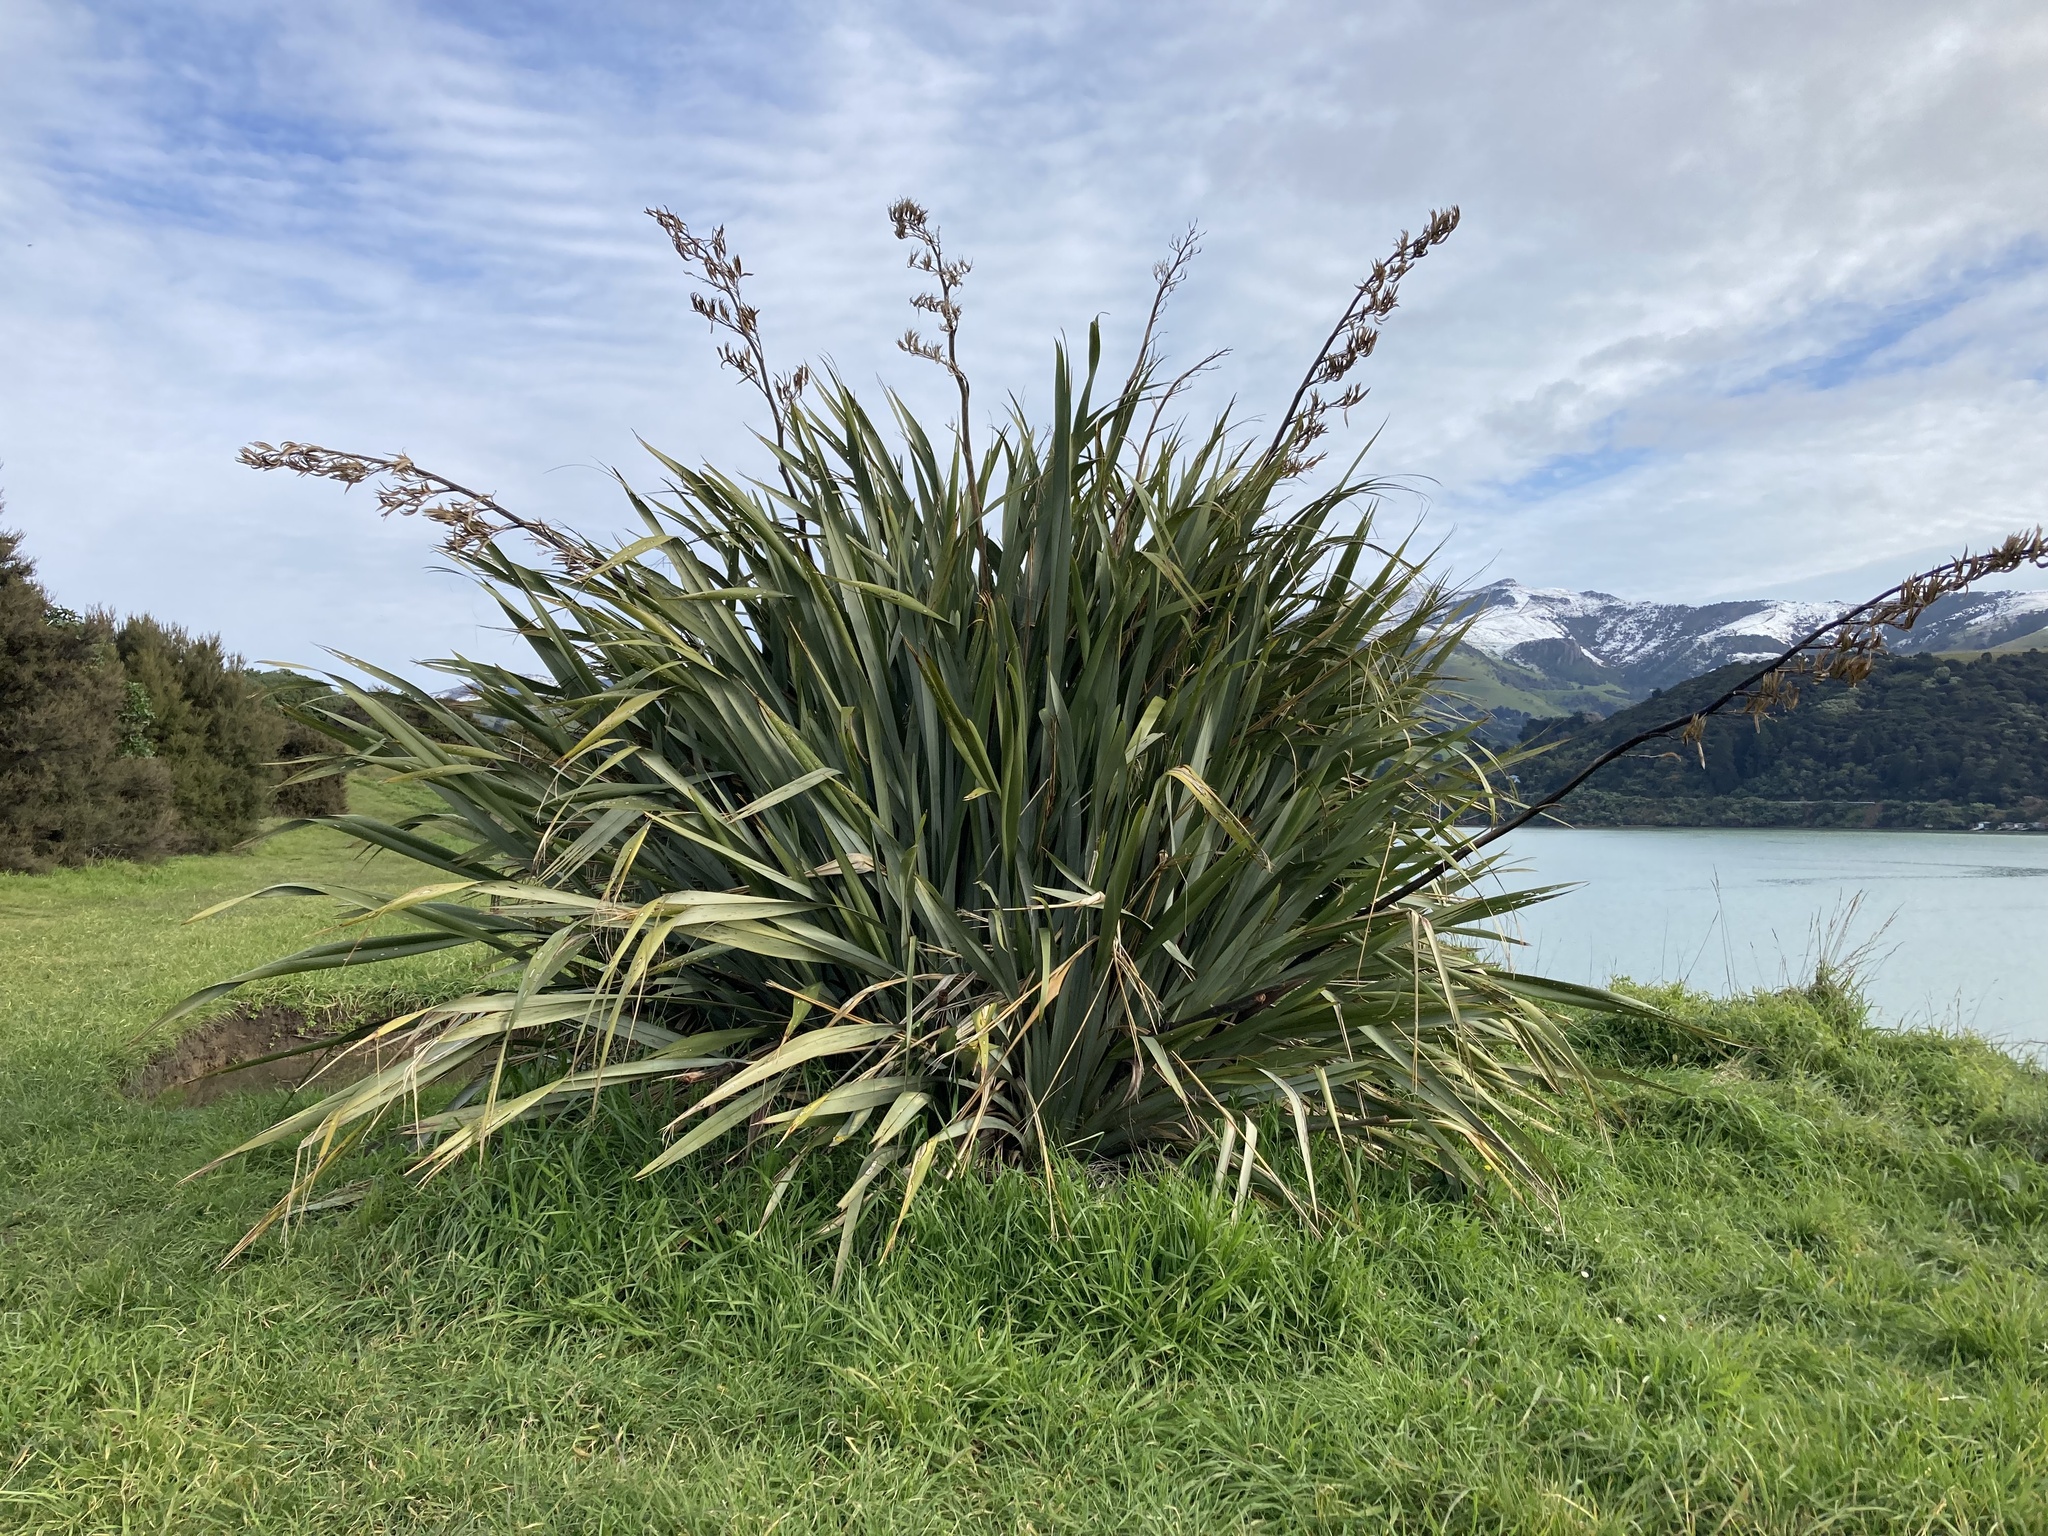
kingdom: Plantae
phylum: Tracheophyta
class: Liliopsida
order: Asparagales
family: Asphodelaceae
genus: Phormium
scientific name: Phormium tenax
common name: New zealand flax
